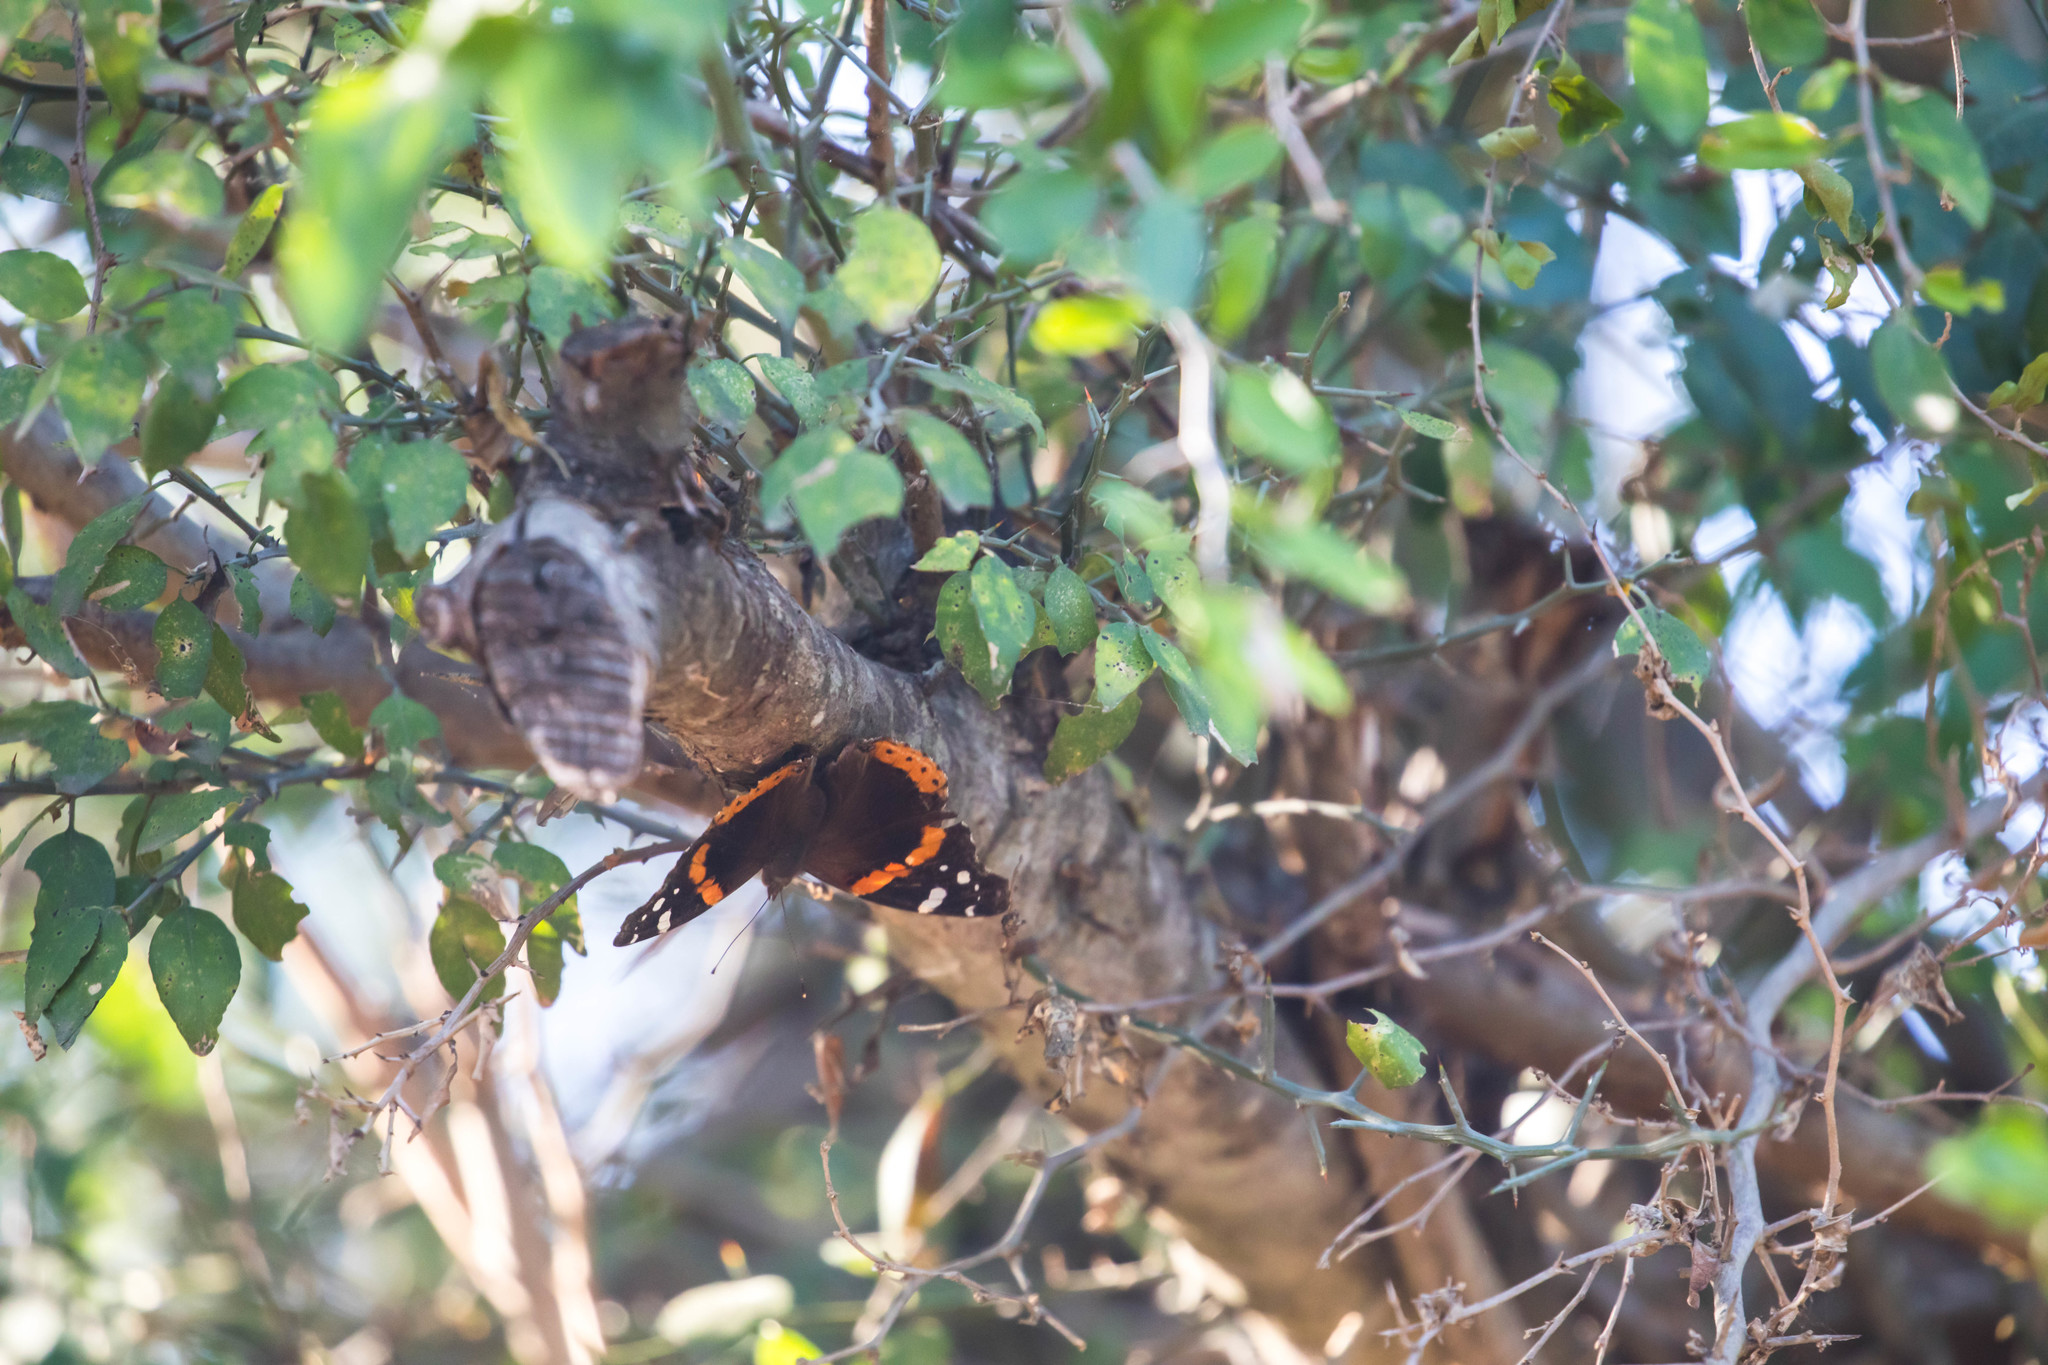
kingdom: Animalia
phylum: Arthropoda
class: Insecta
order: Lepidoptera
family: Nymphalidae
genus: Vanessa
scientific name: Vanessa atalanta
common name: Red admiral
